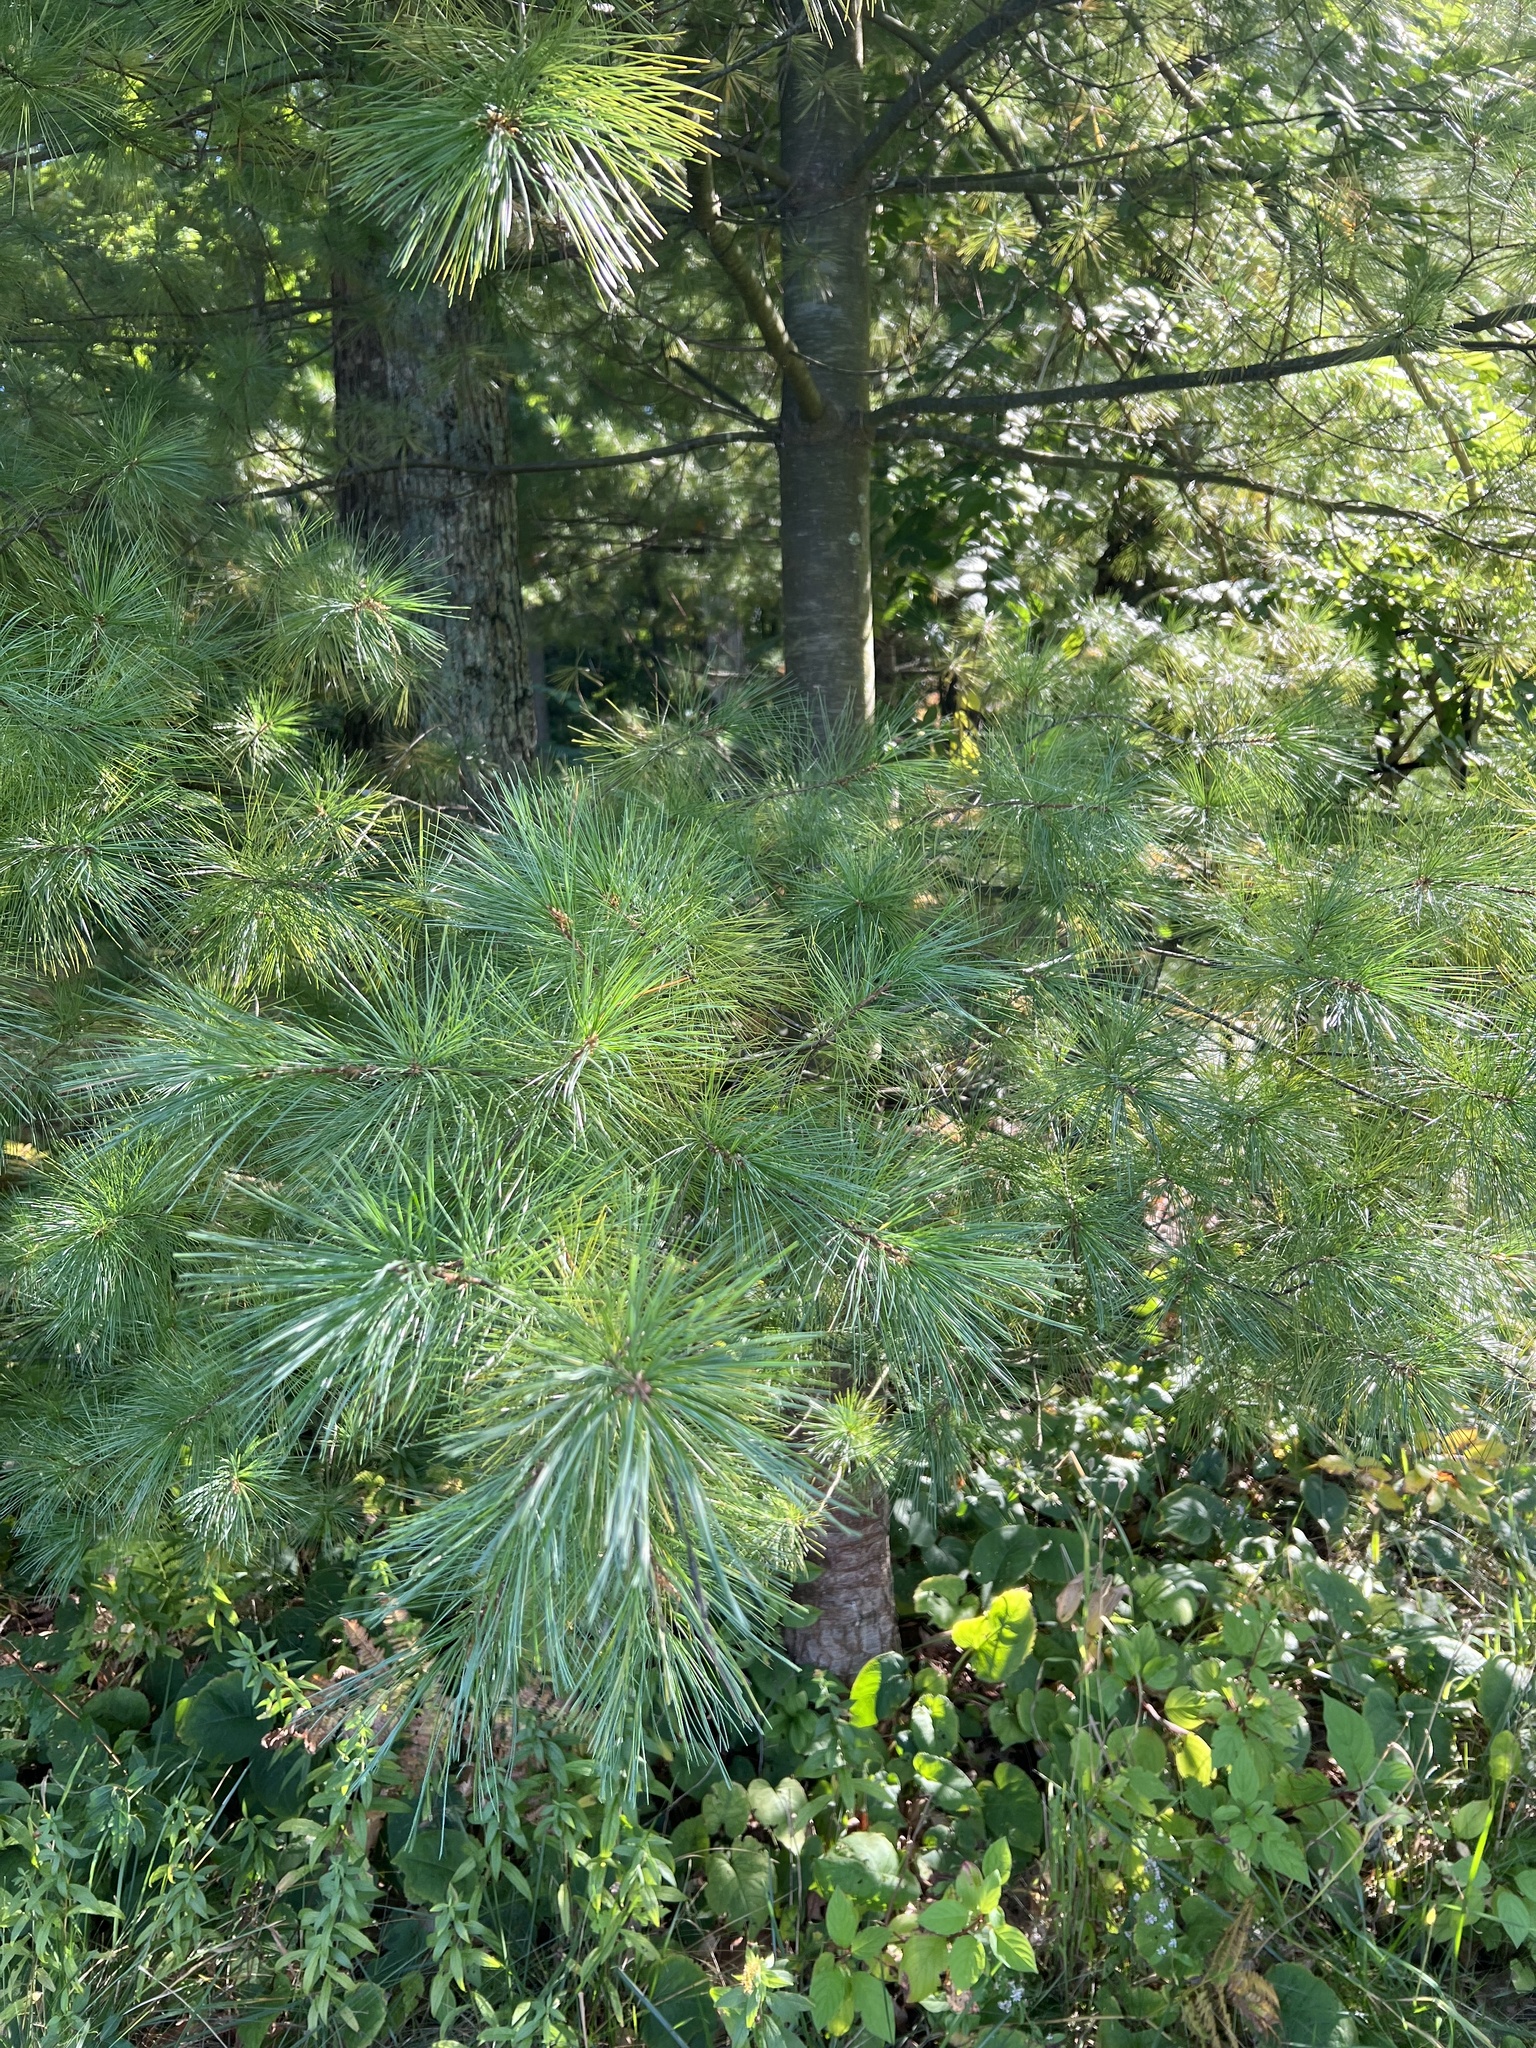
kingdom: Plantae
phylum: Tracheophyta
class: Pinopsida
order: Pinales
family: Pinaceae
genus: Pinus
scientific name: Pinus strobus
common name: Weymouth pine
